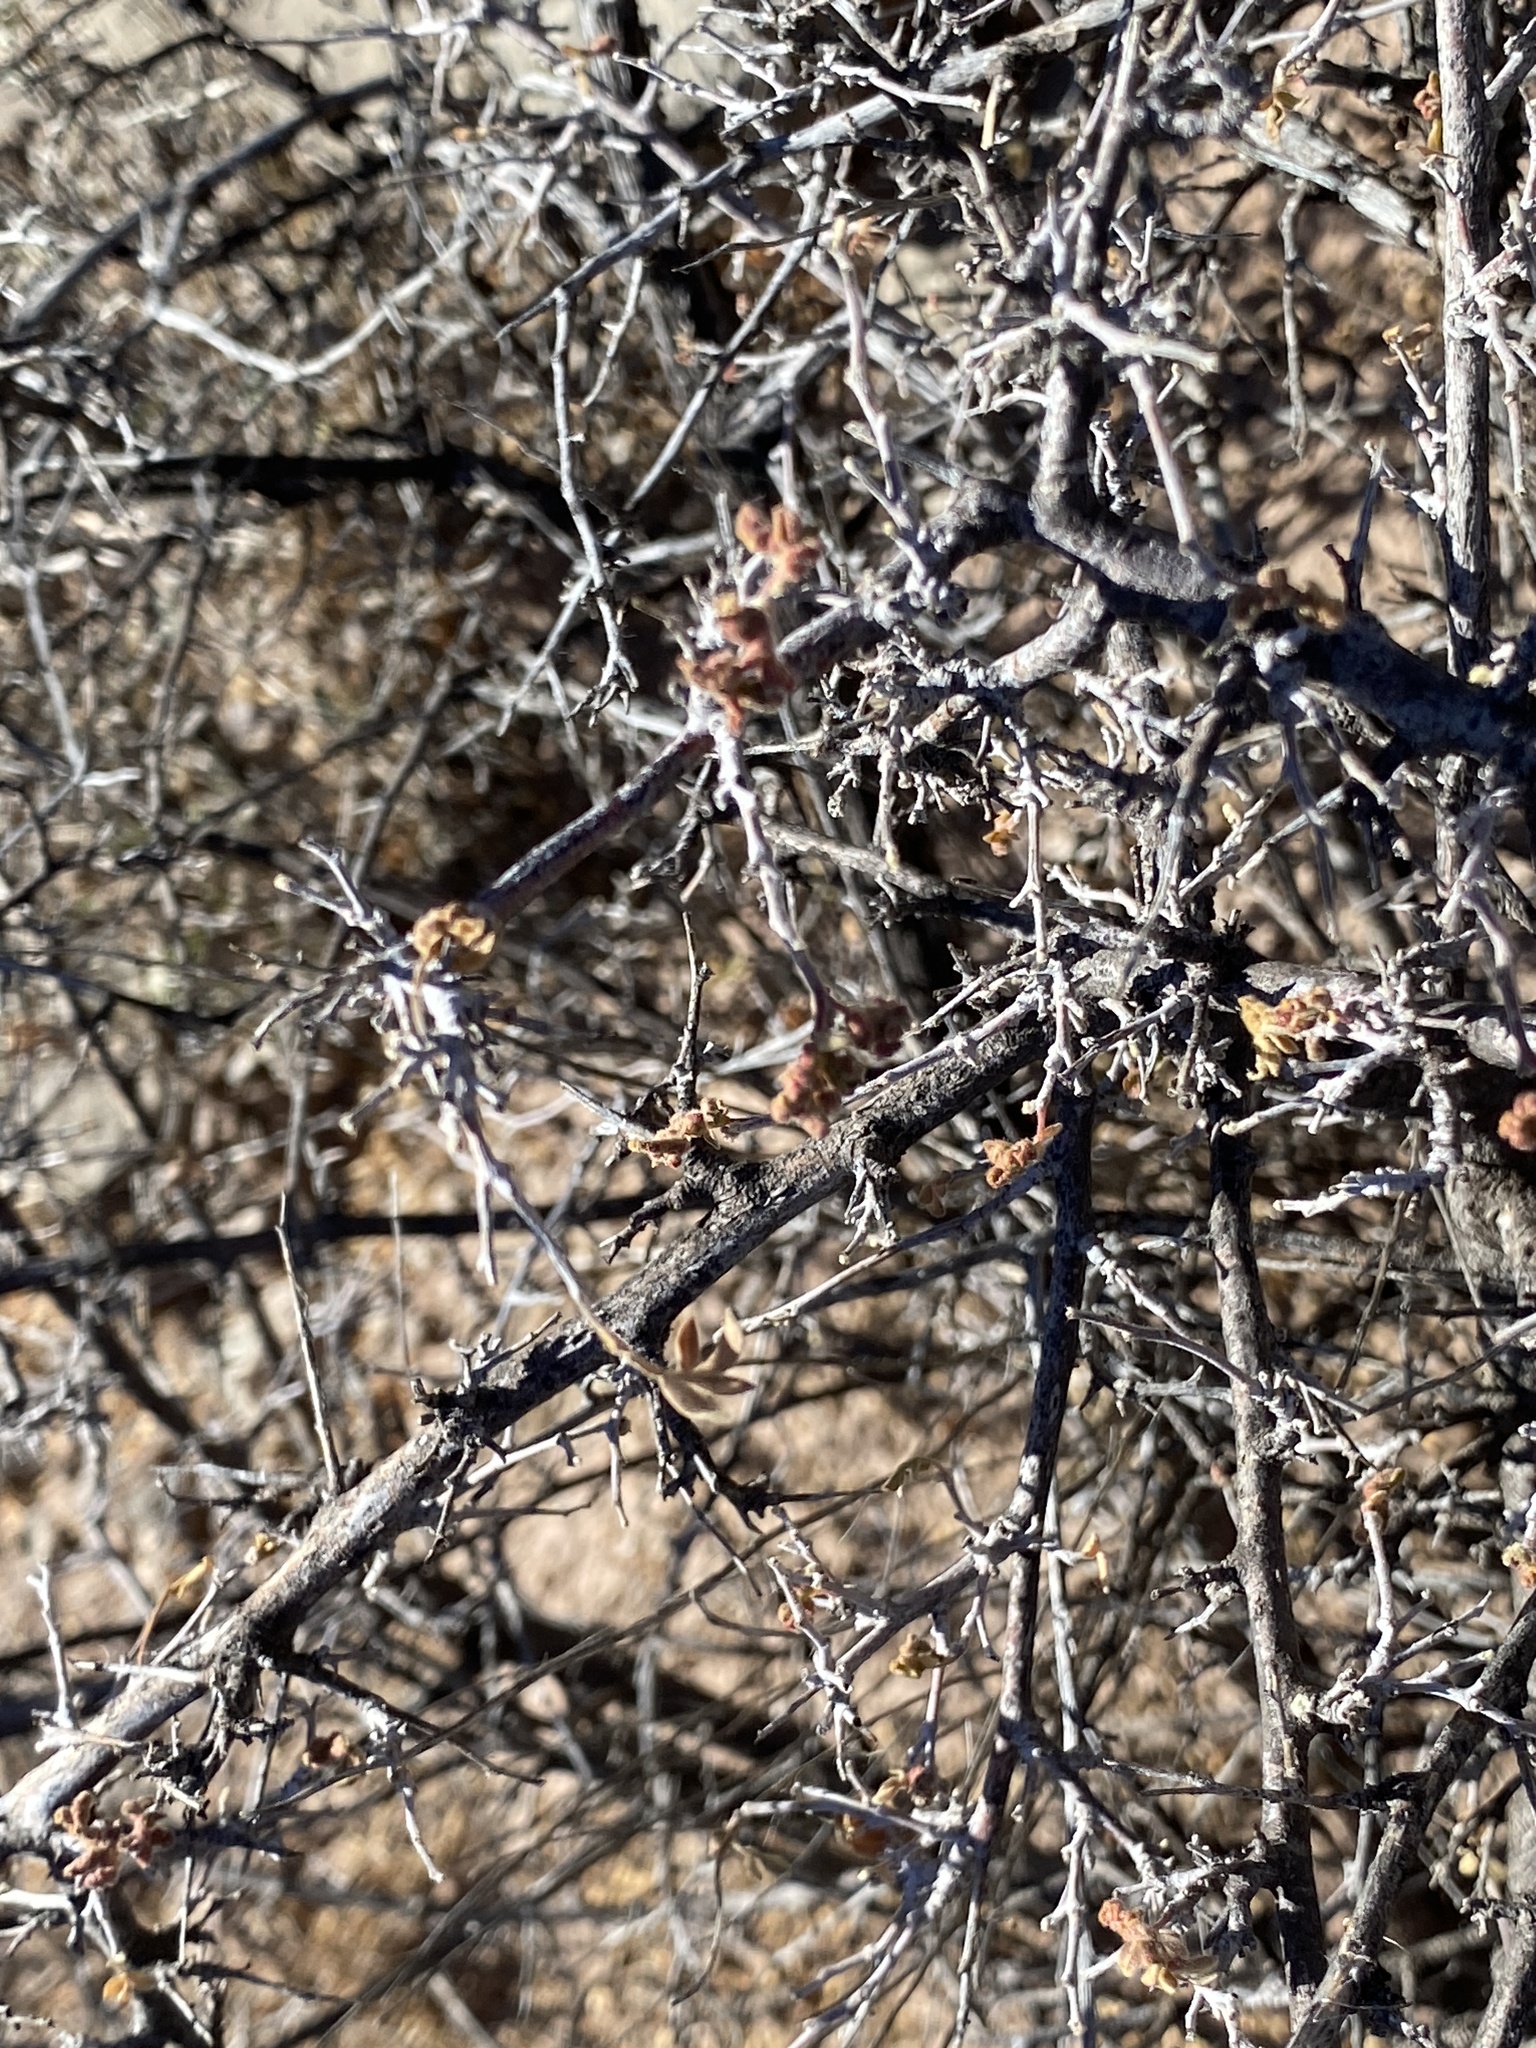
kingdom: Plantae
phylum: Tracheophyta
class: Magnoliopsida
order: Sapindales
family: Anacardiaceae
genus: Rhus
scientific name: Rhus microphylla
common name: Desert sumac
